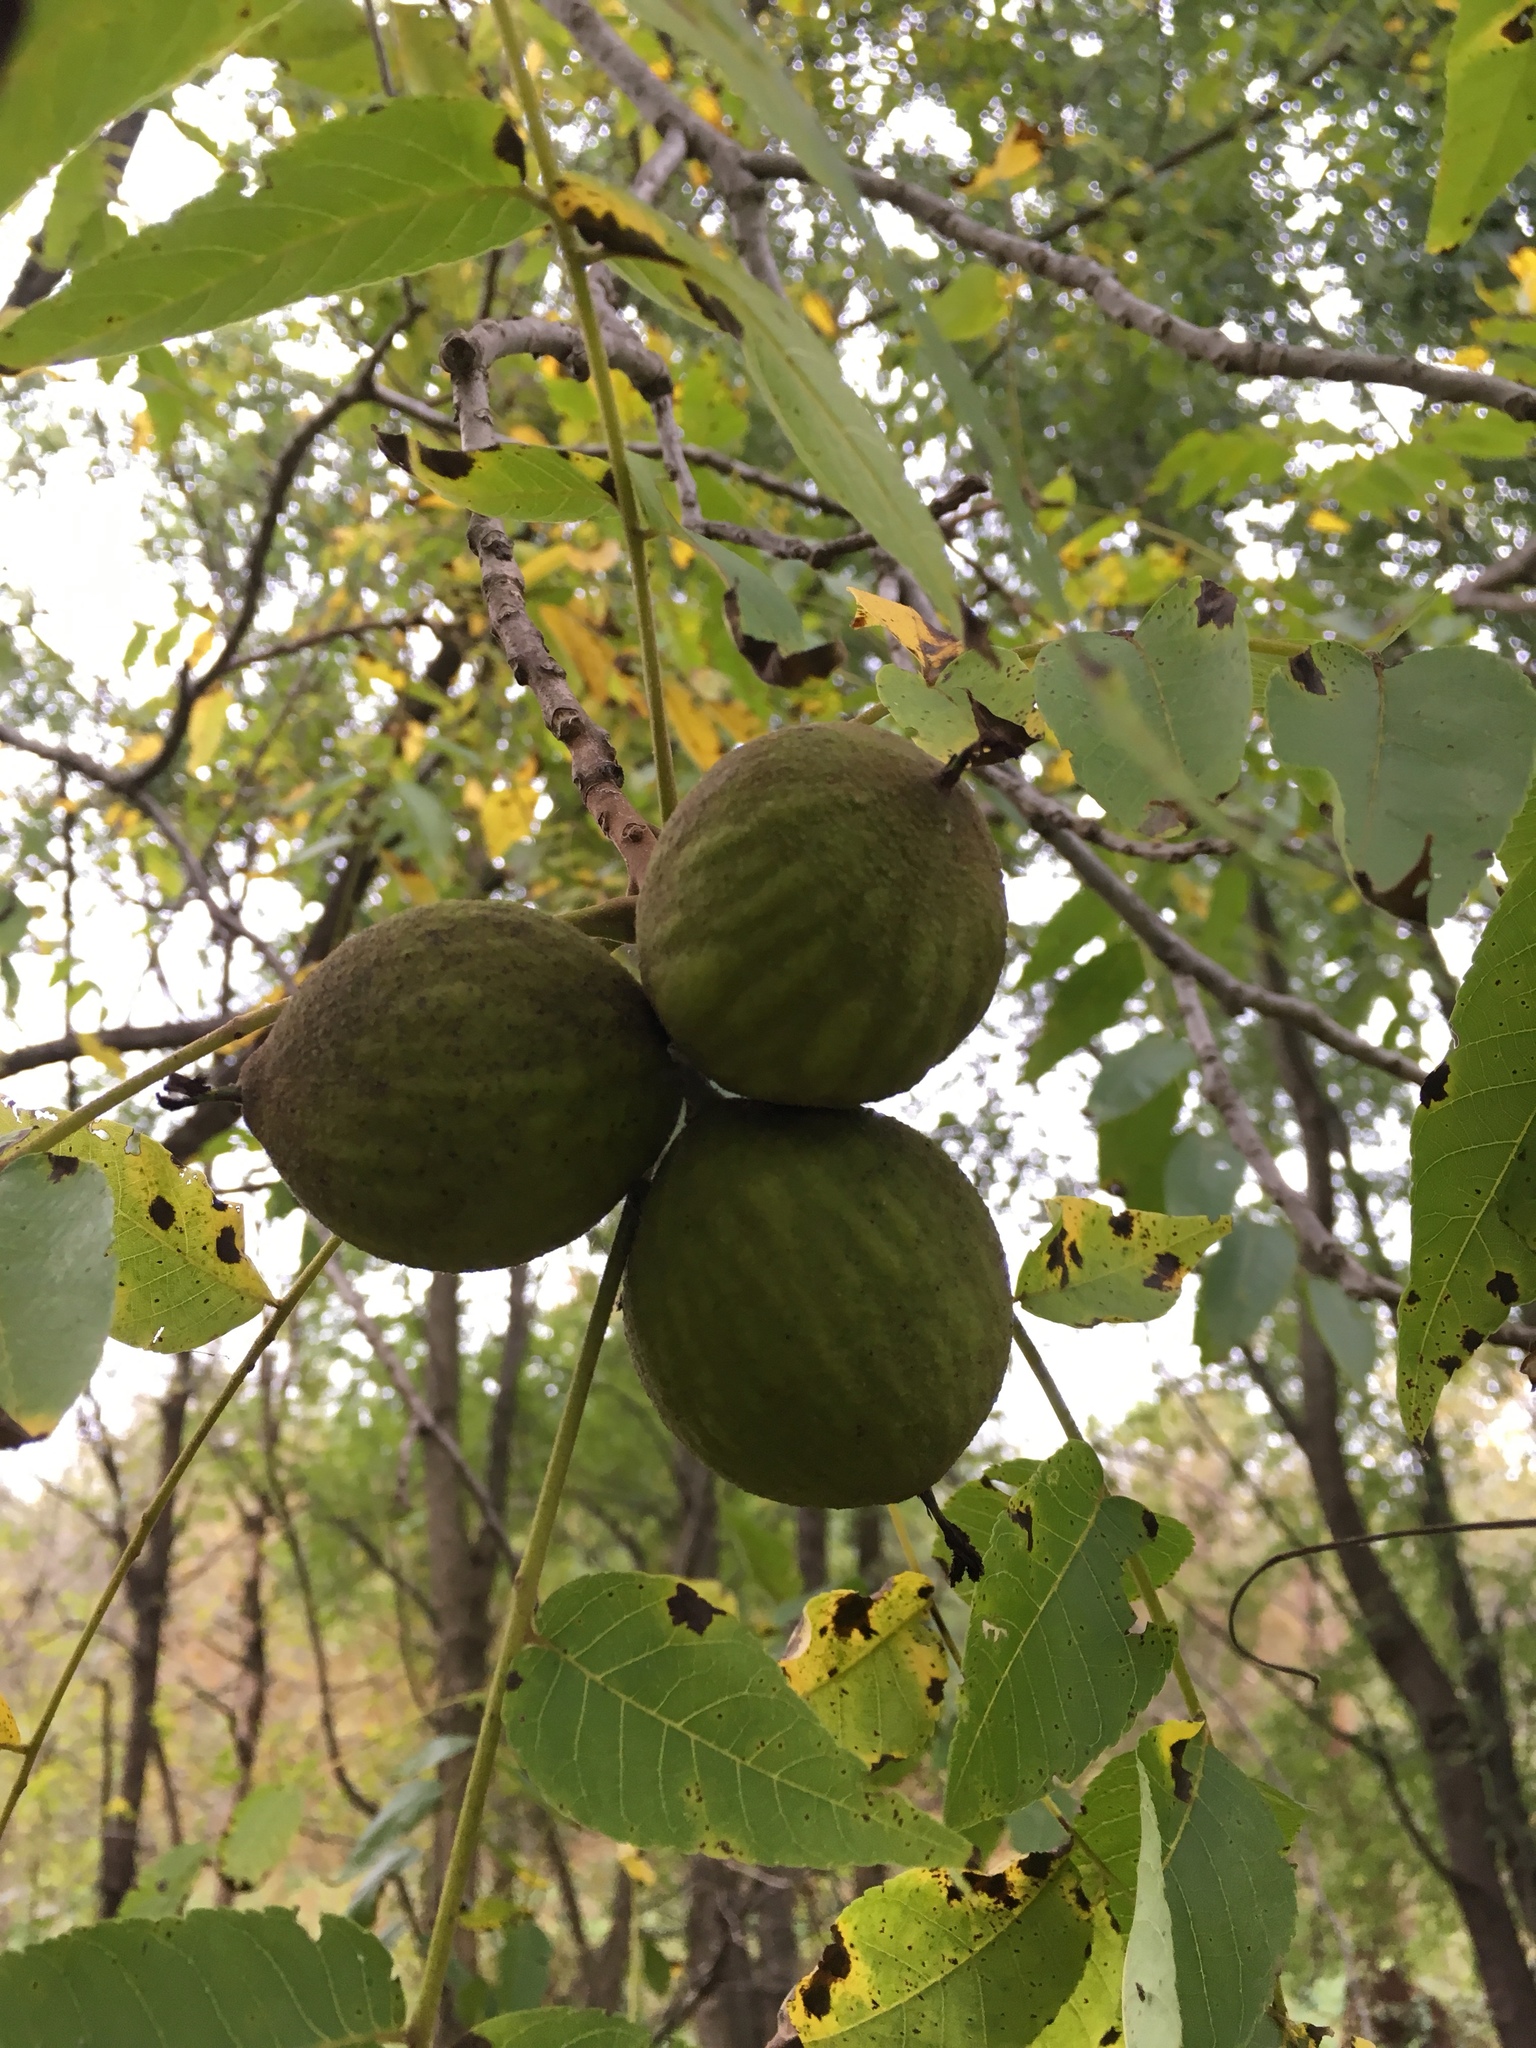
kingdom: Plantae
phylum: Tracheophyta
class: Magnoliopsida
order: Fagales
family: Juglandaceae
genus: Juglans
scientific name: Juglans nigra
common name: Black walnut
